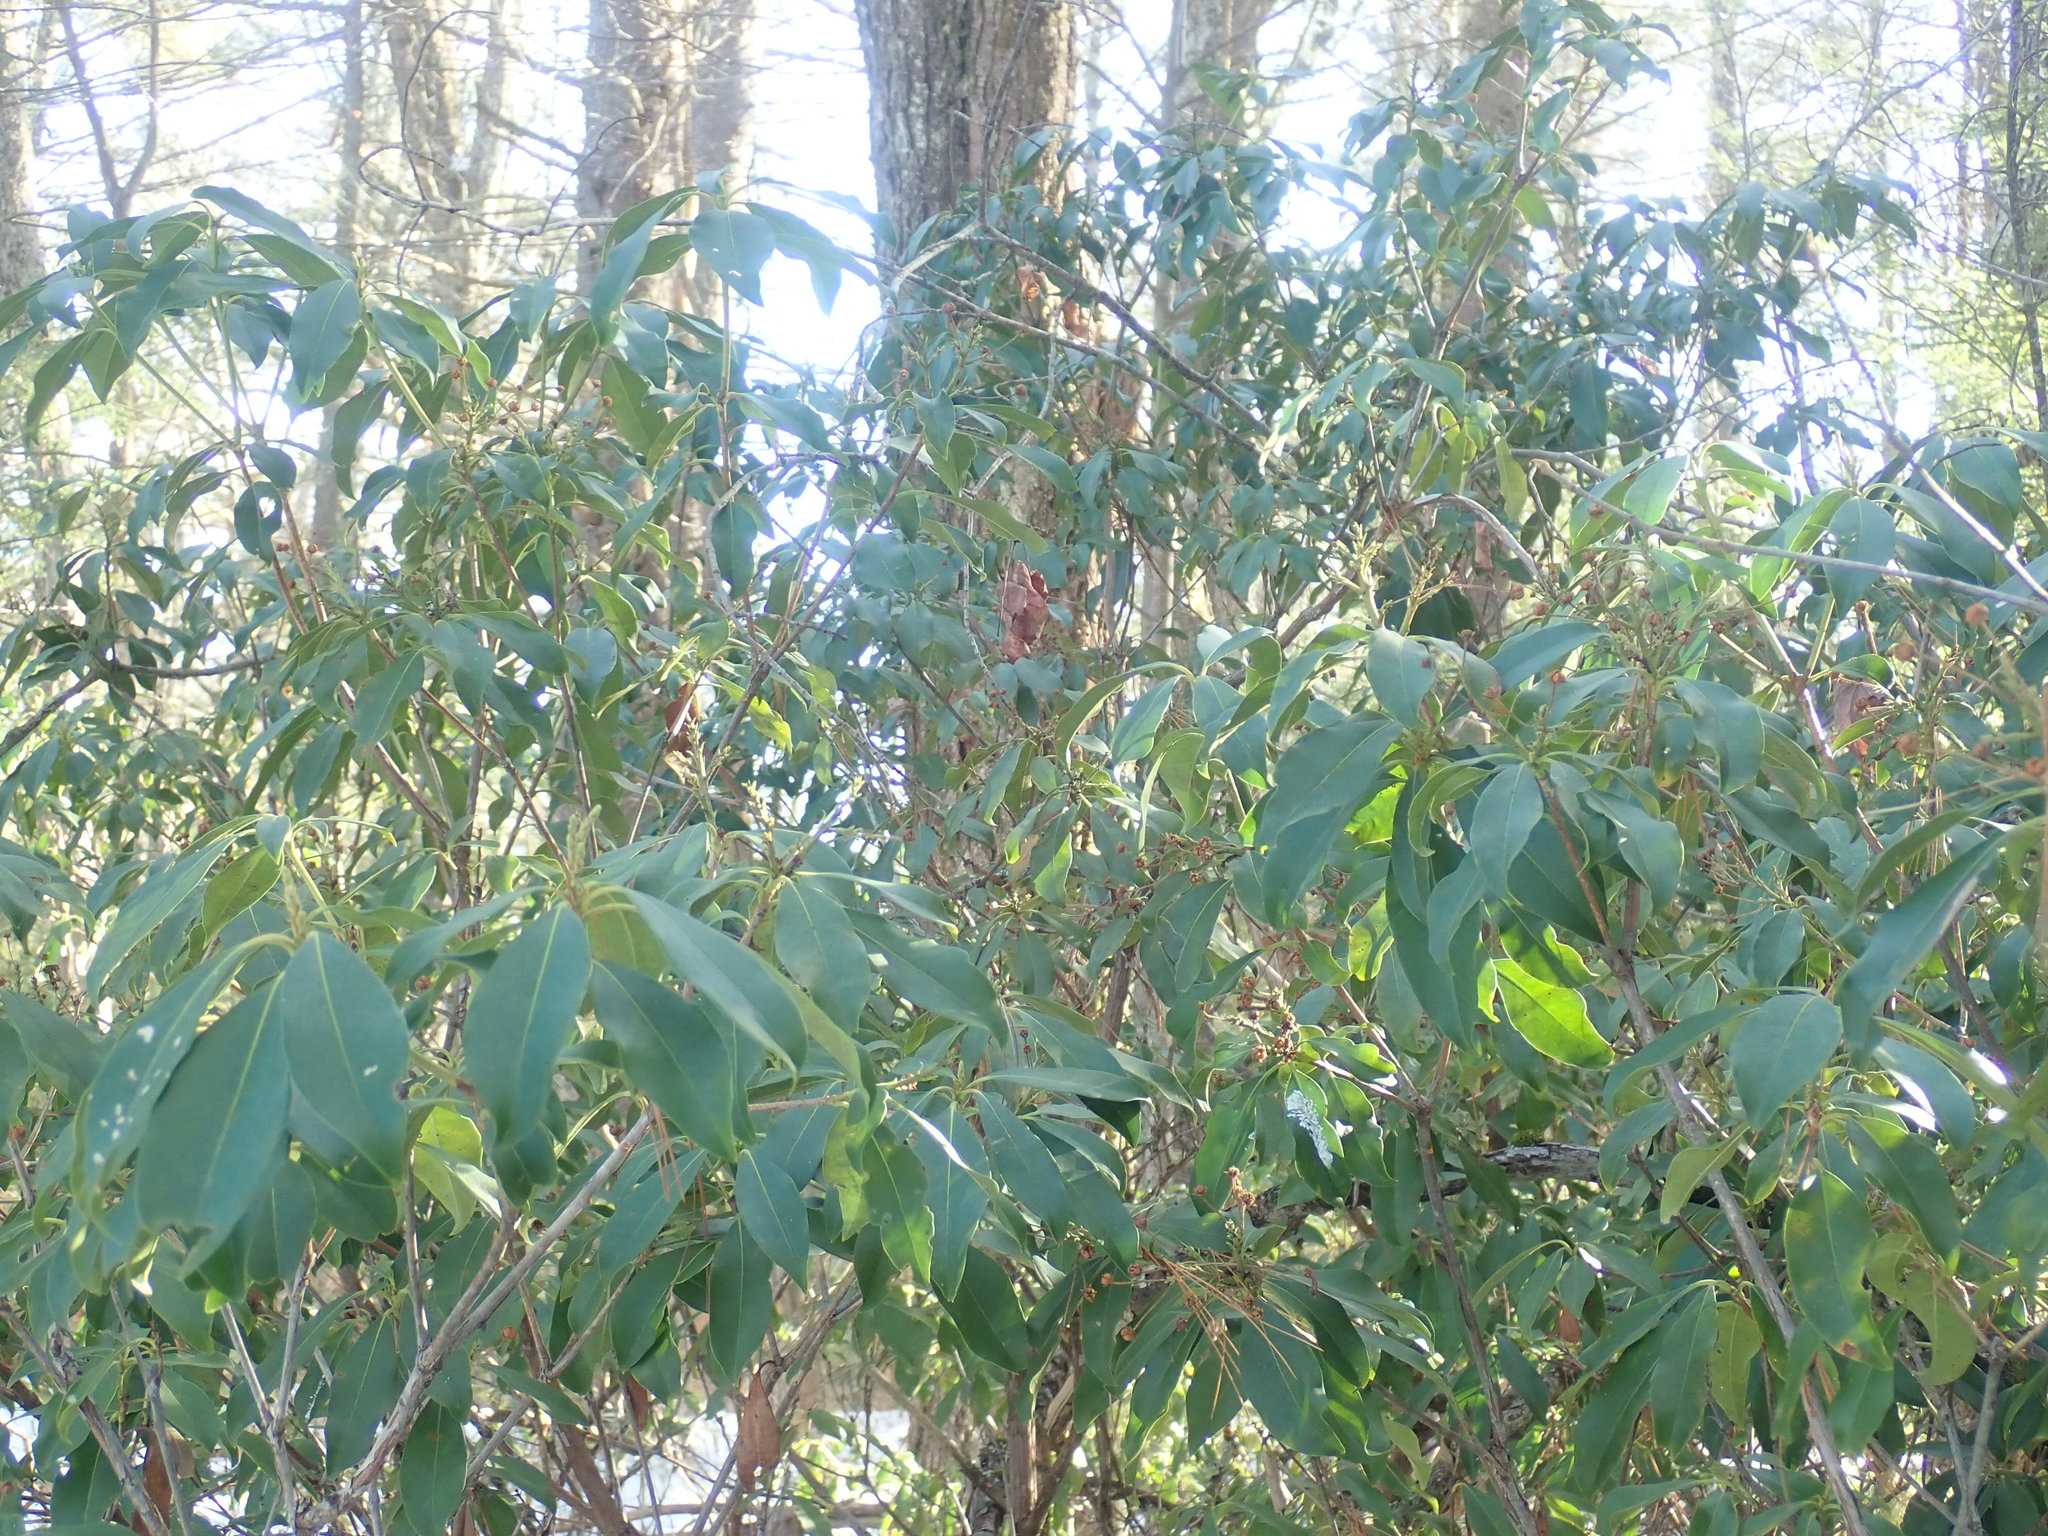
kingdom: Plantae
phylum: Tracheophyta
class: Magnoliopsida
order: Ericales
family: Ericaceae
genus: Kalmia
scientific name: Kalmia latifolia
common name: Mountain-laurel
